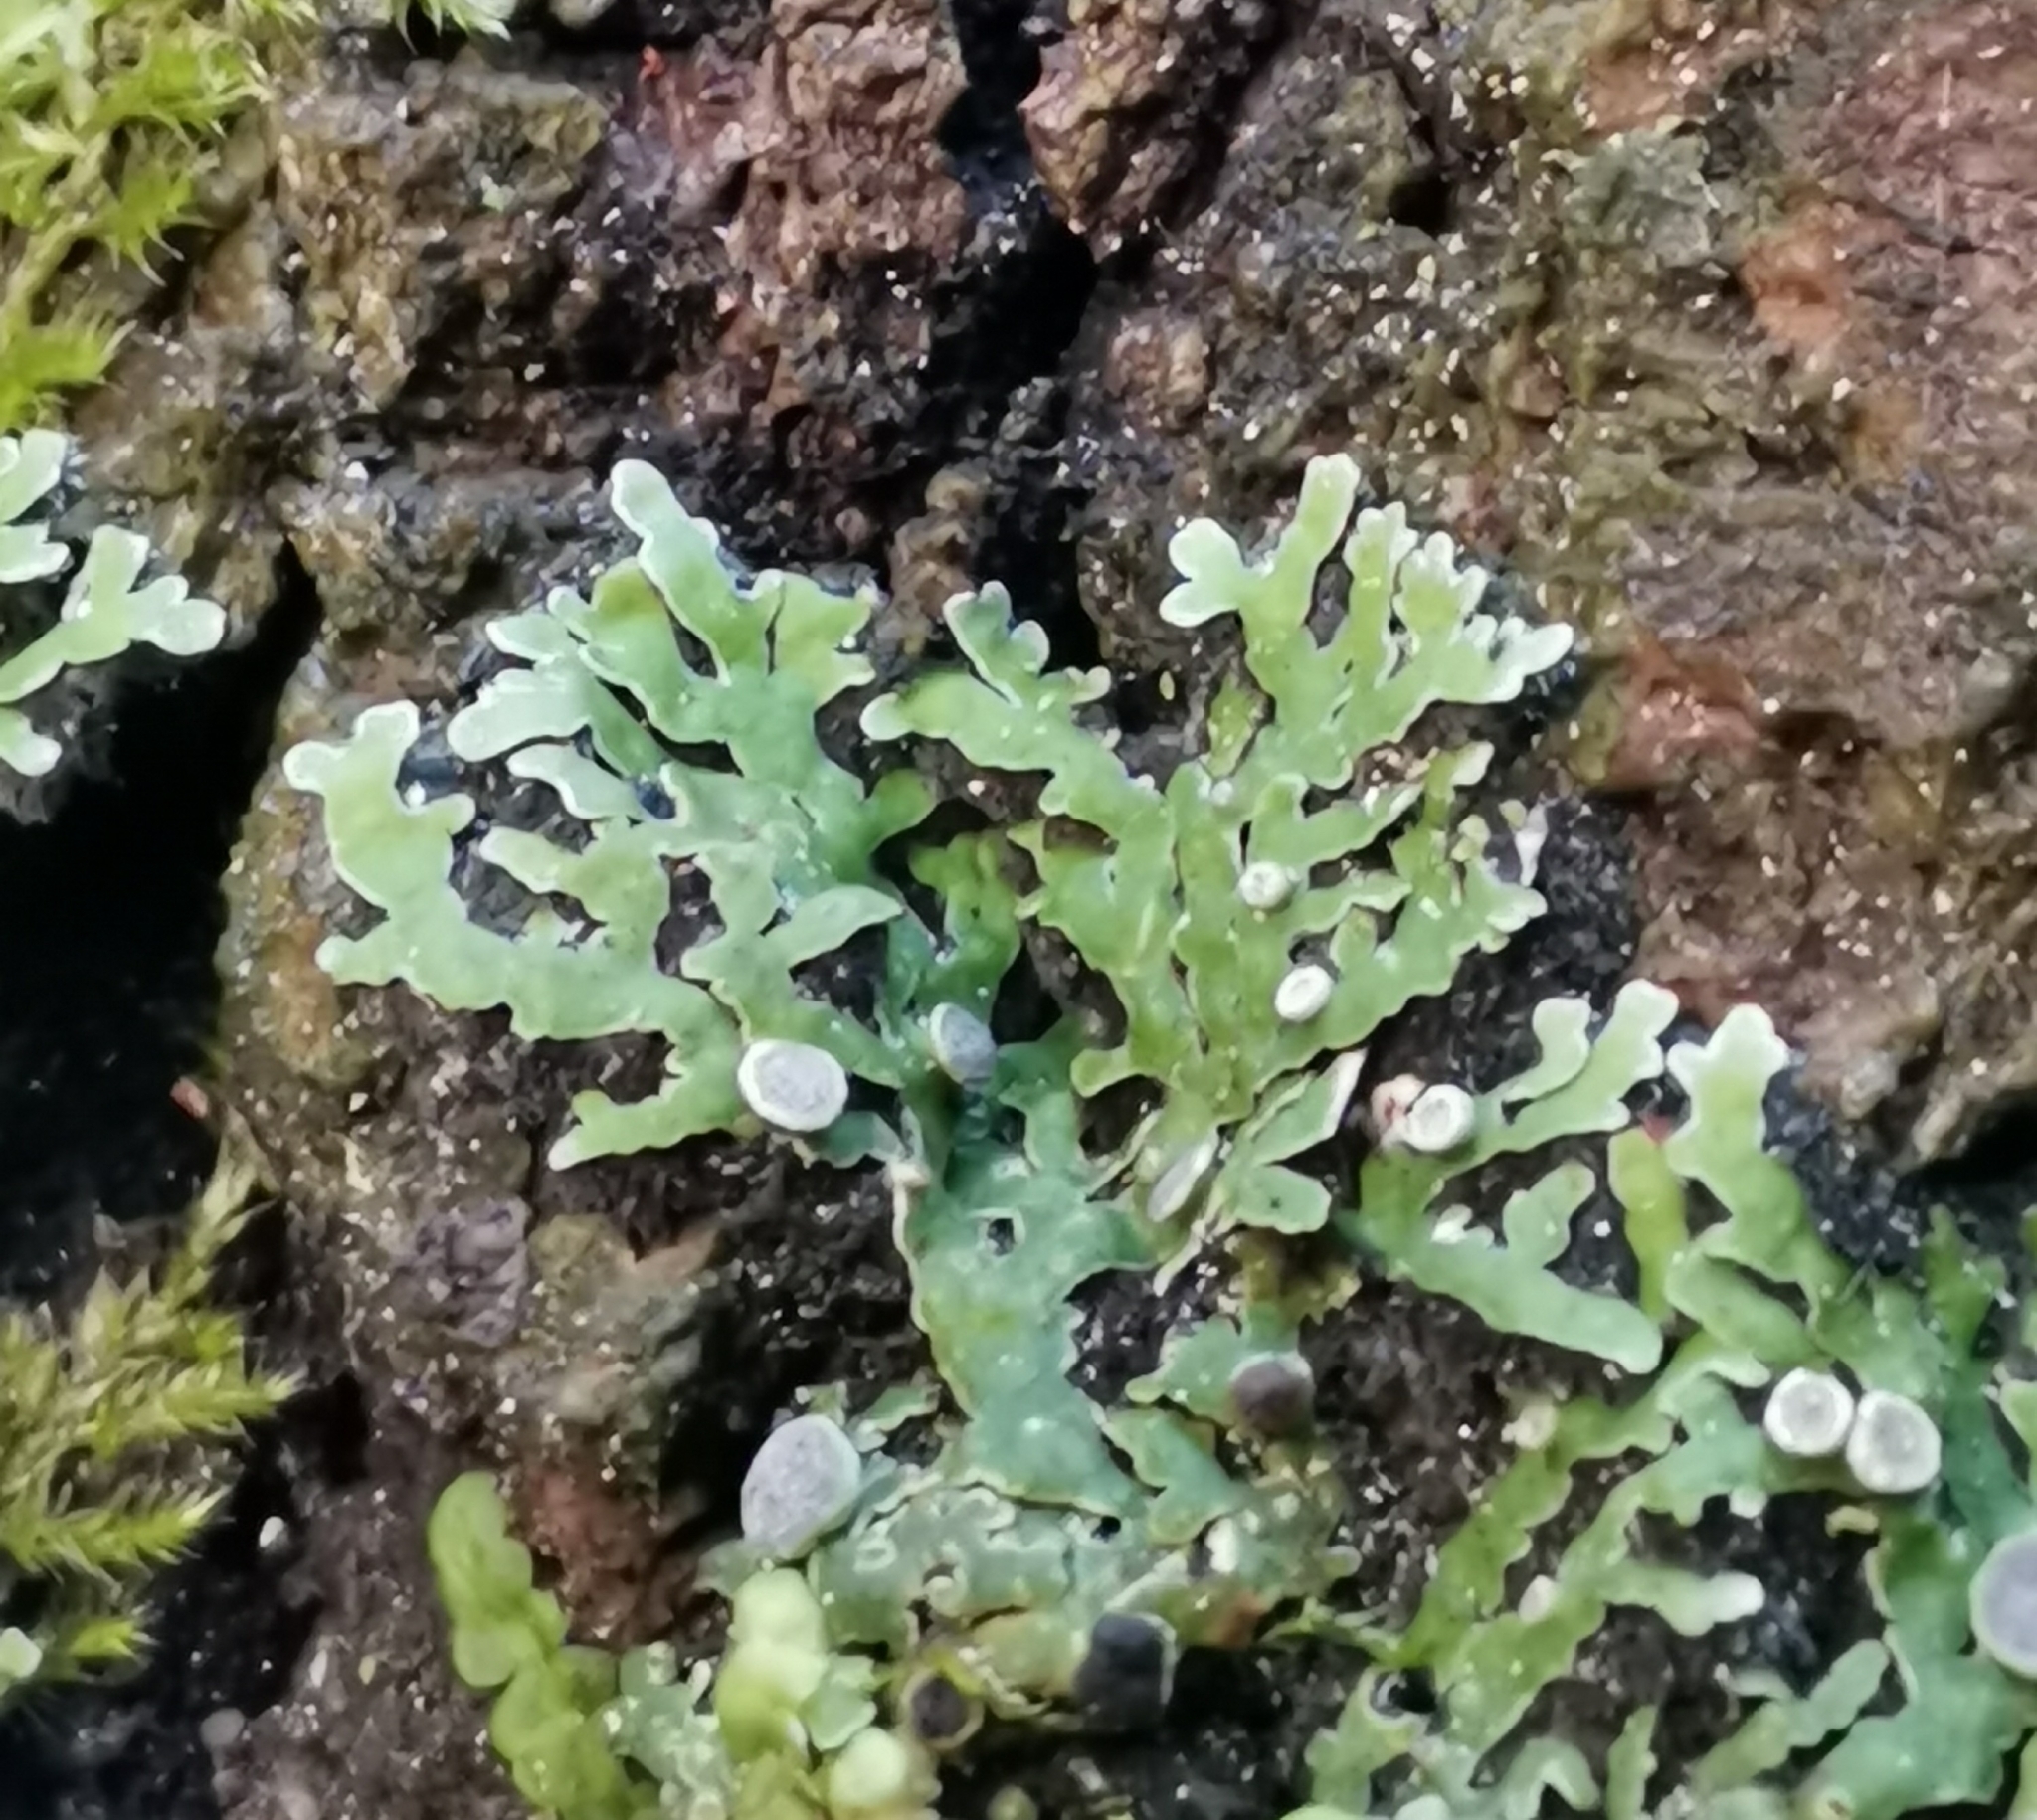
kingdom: Fungi
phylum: Ascomycota
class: Lecanoromycetes
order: Caliciales
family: Physciaceae
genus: Physconia
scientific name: Physconia distorta
